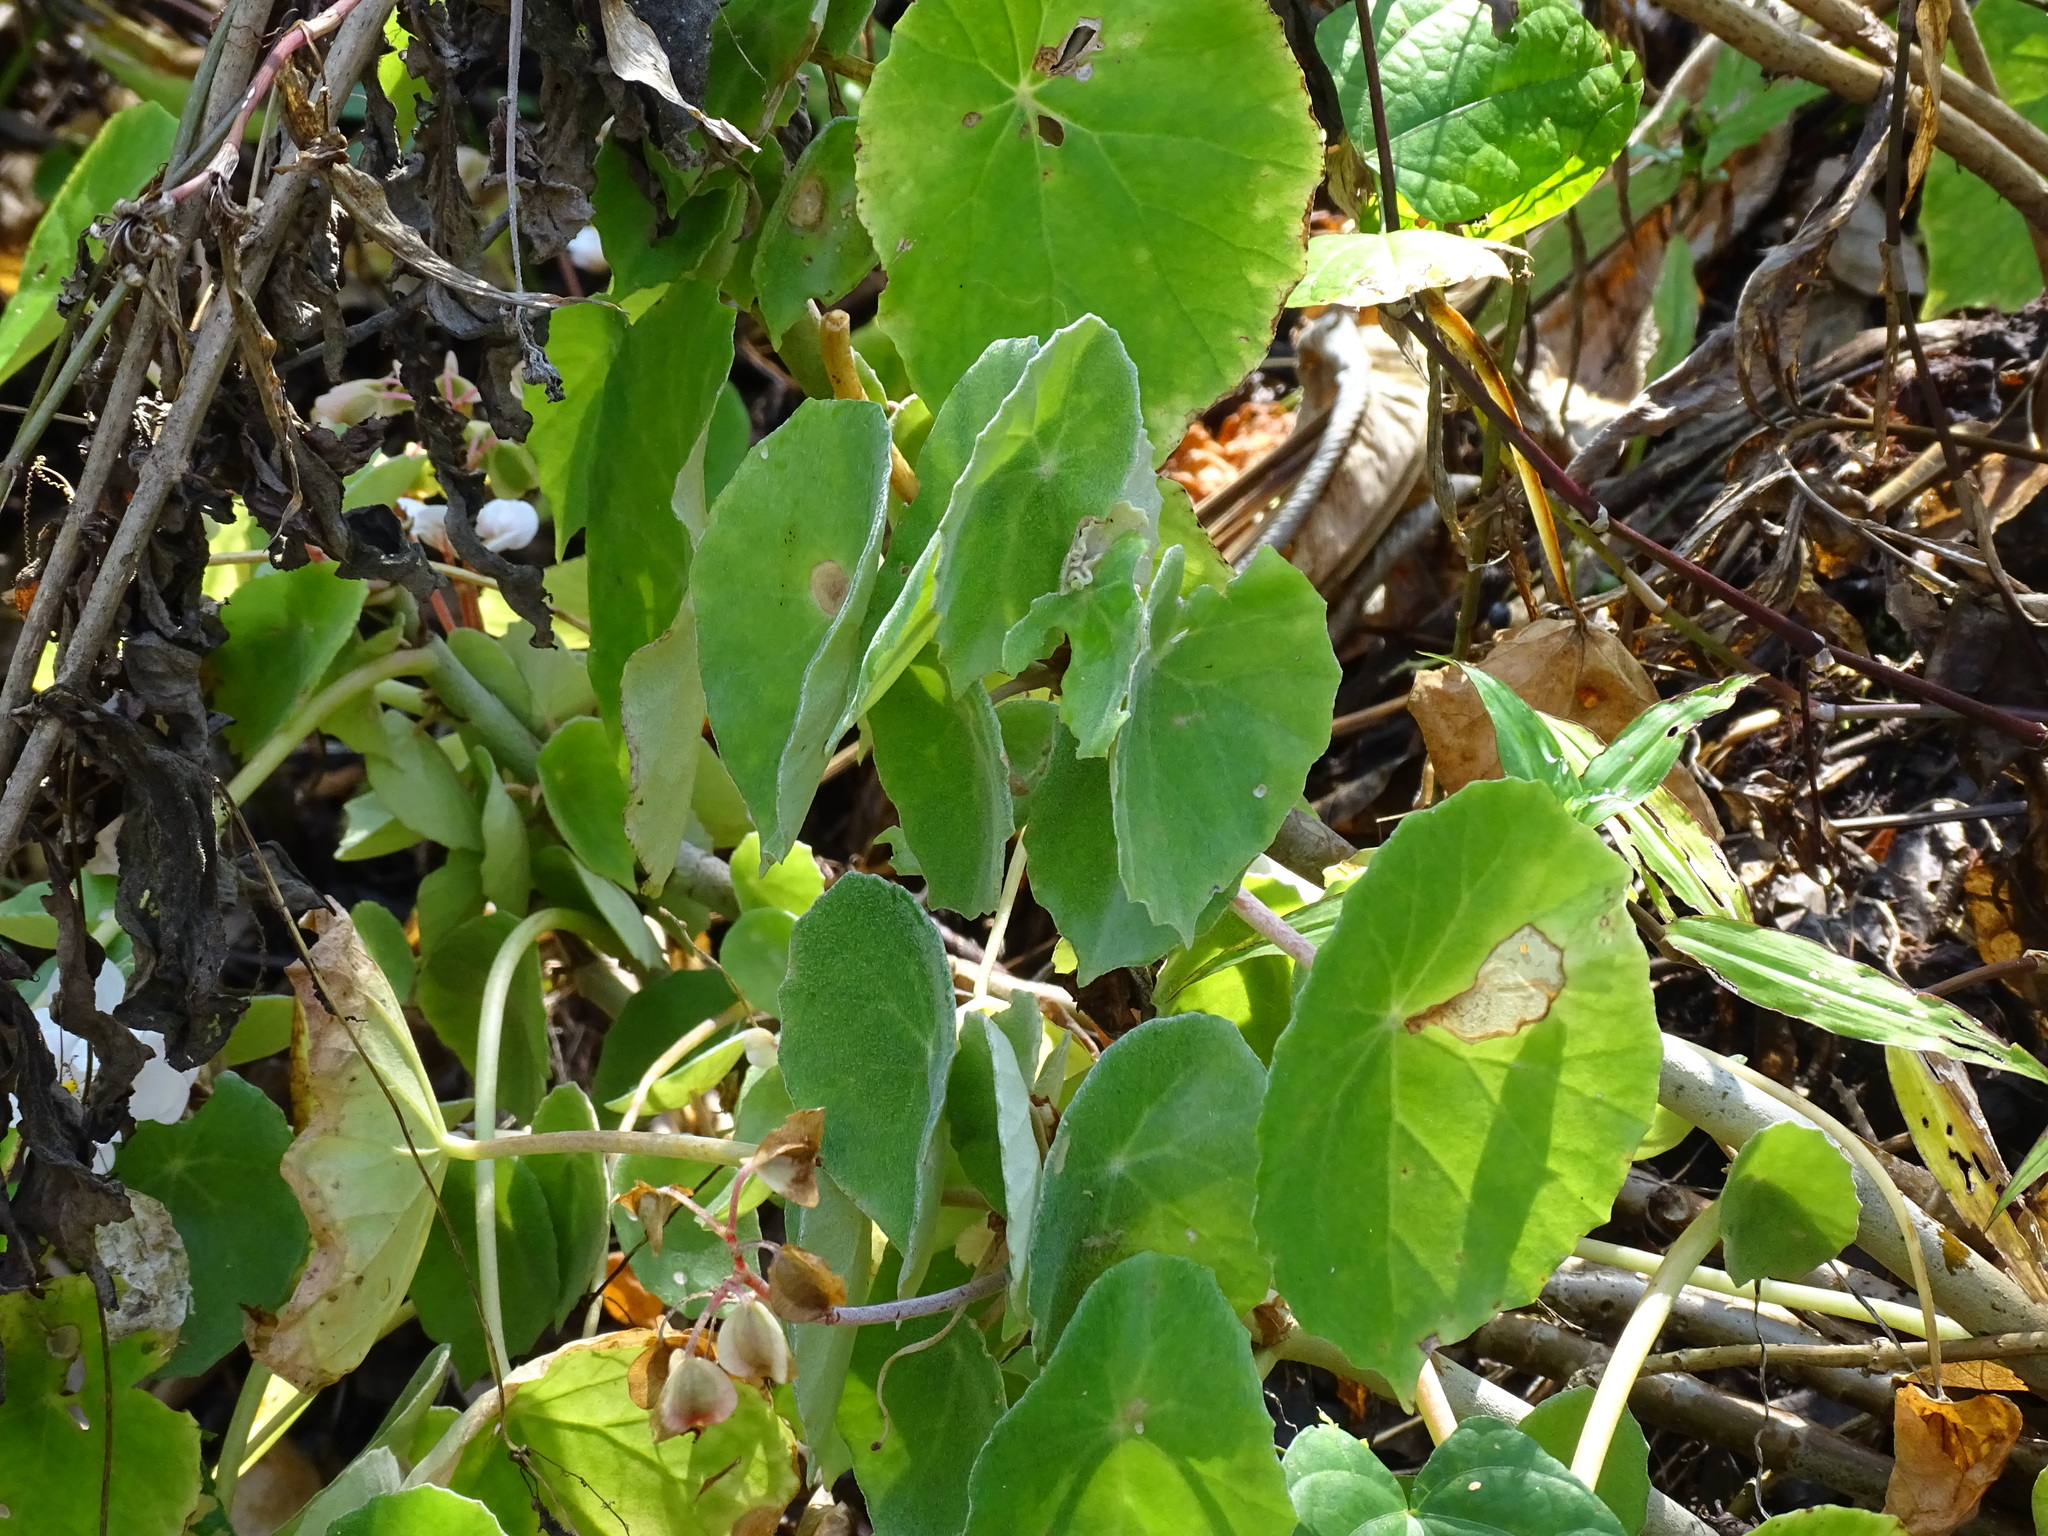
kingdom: Plantae
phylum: Tracheophyta
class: Magnoliopsida
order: Cucurbitales
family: Begoniaceae
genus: Begonia
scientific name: Begonia peltata
